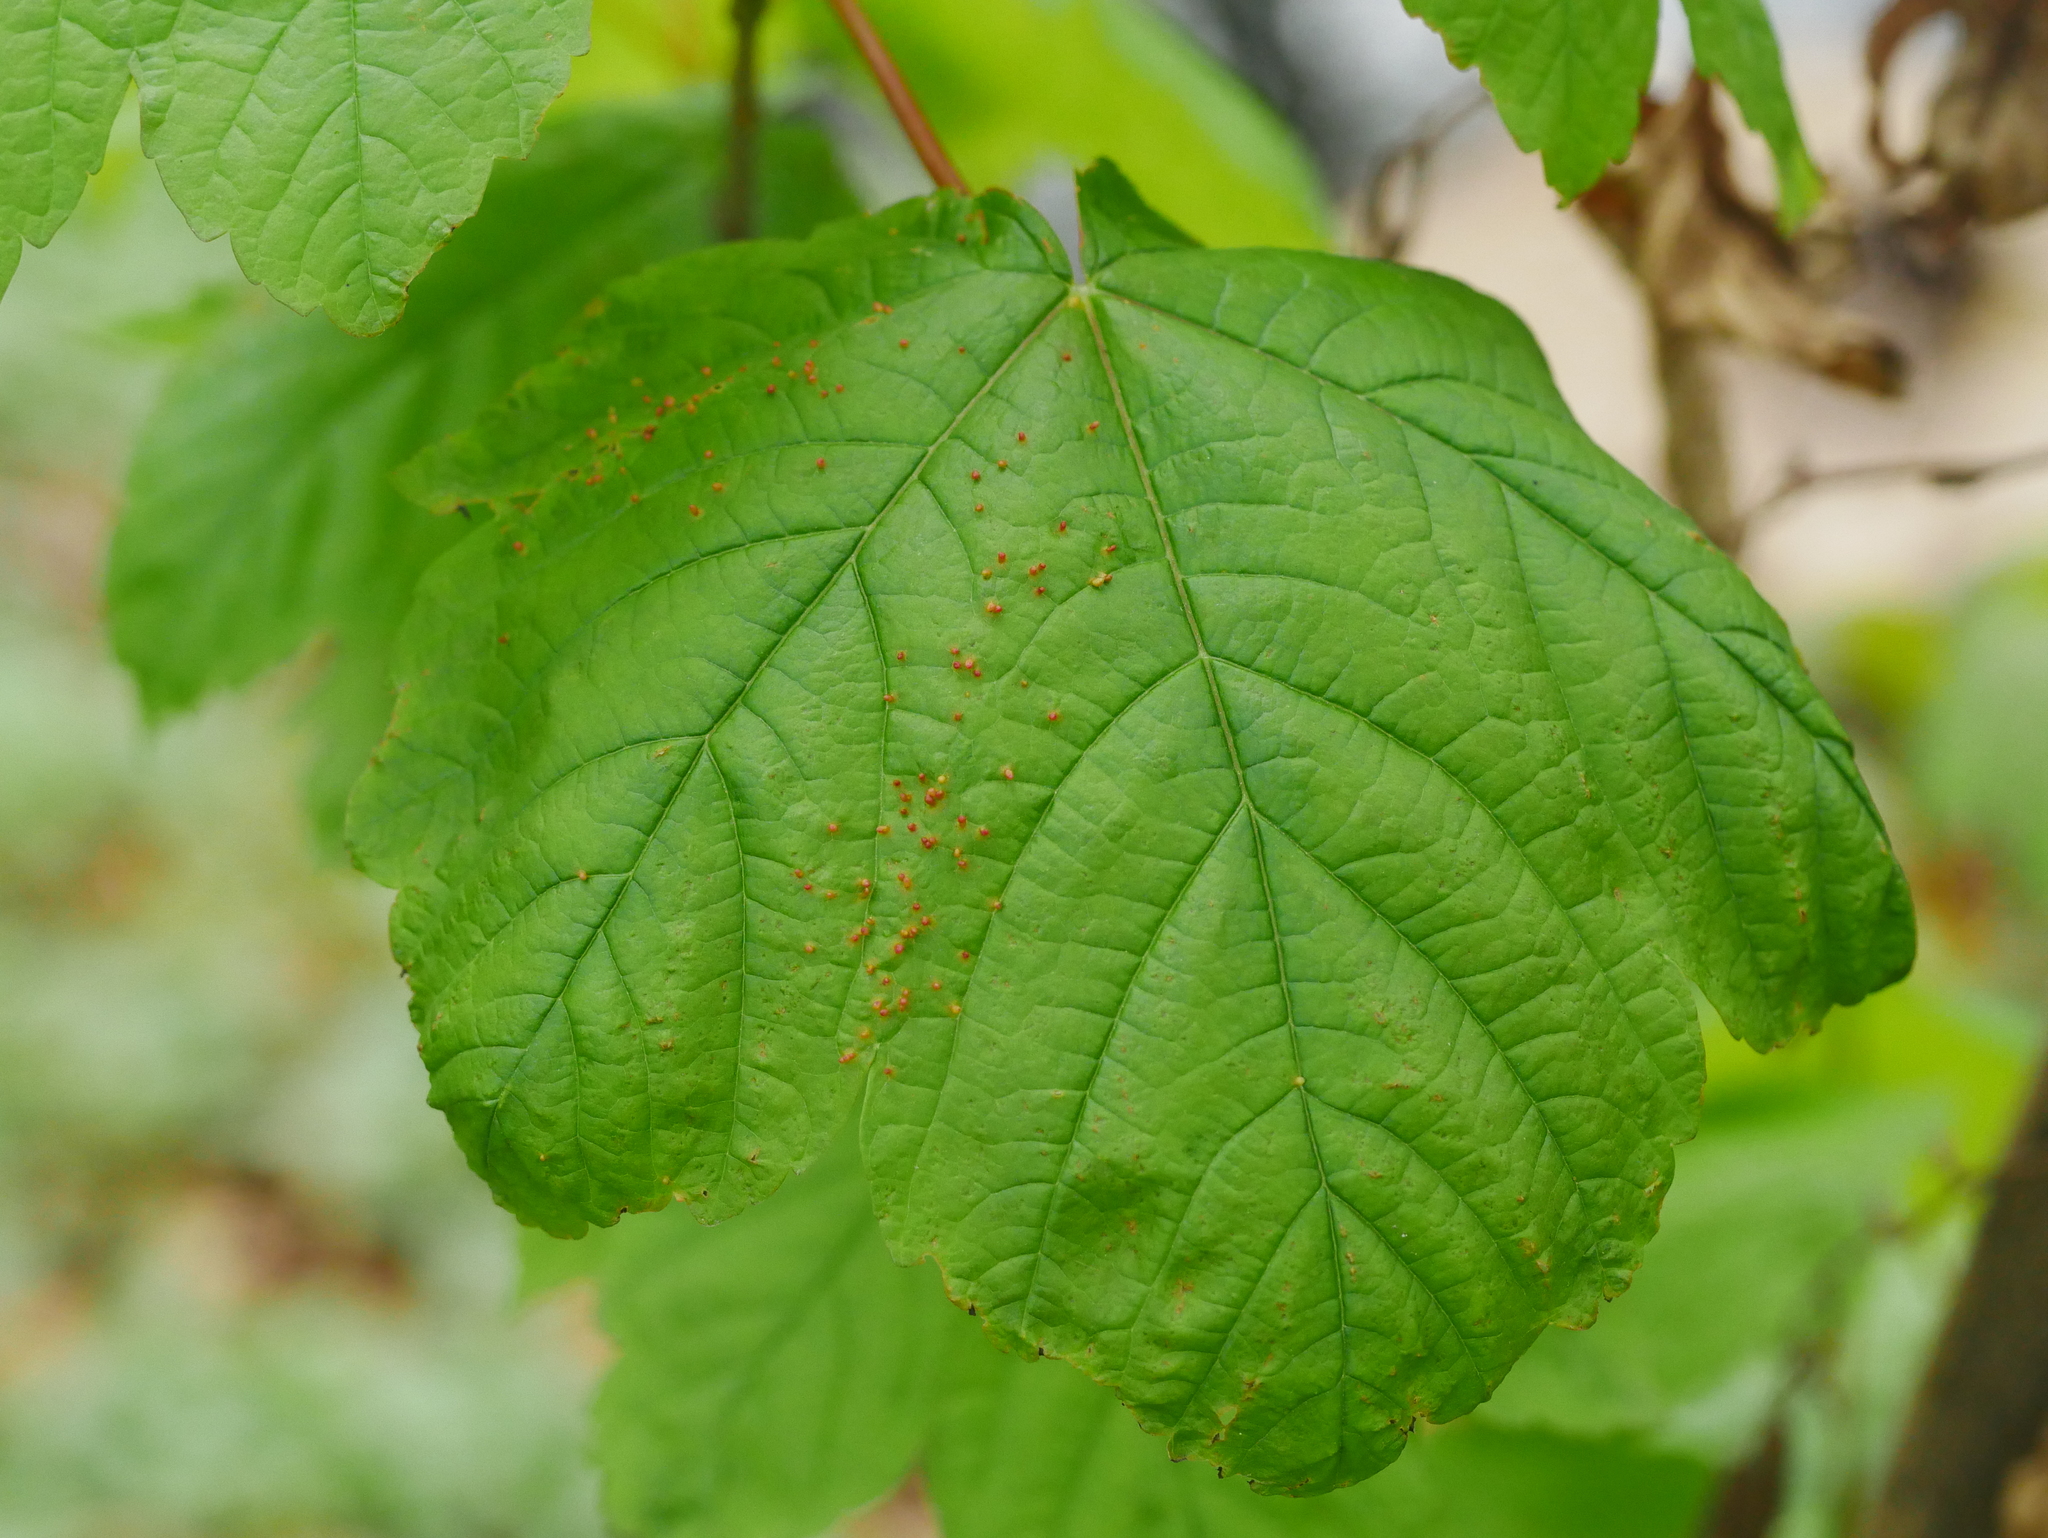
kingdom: Plantae
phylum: Tracheophyta
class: Magnoliopsida
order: Sapindales
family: Sapindaceae
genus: Acer
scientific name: Acer pseudoplatanus
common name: Sycamore
